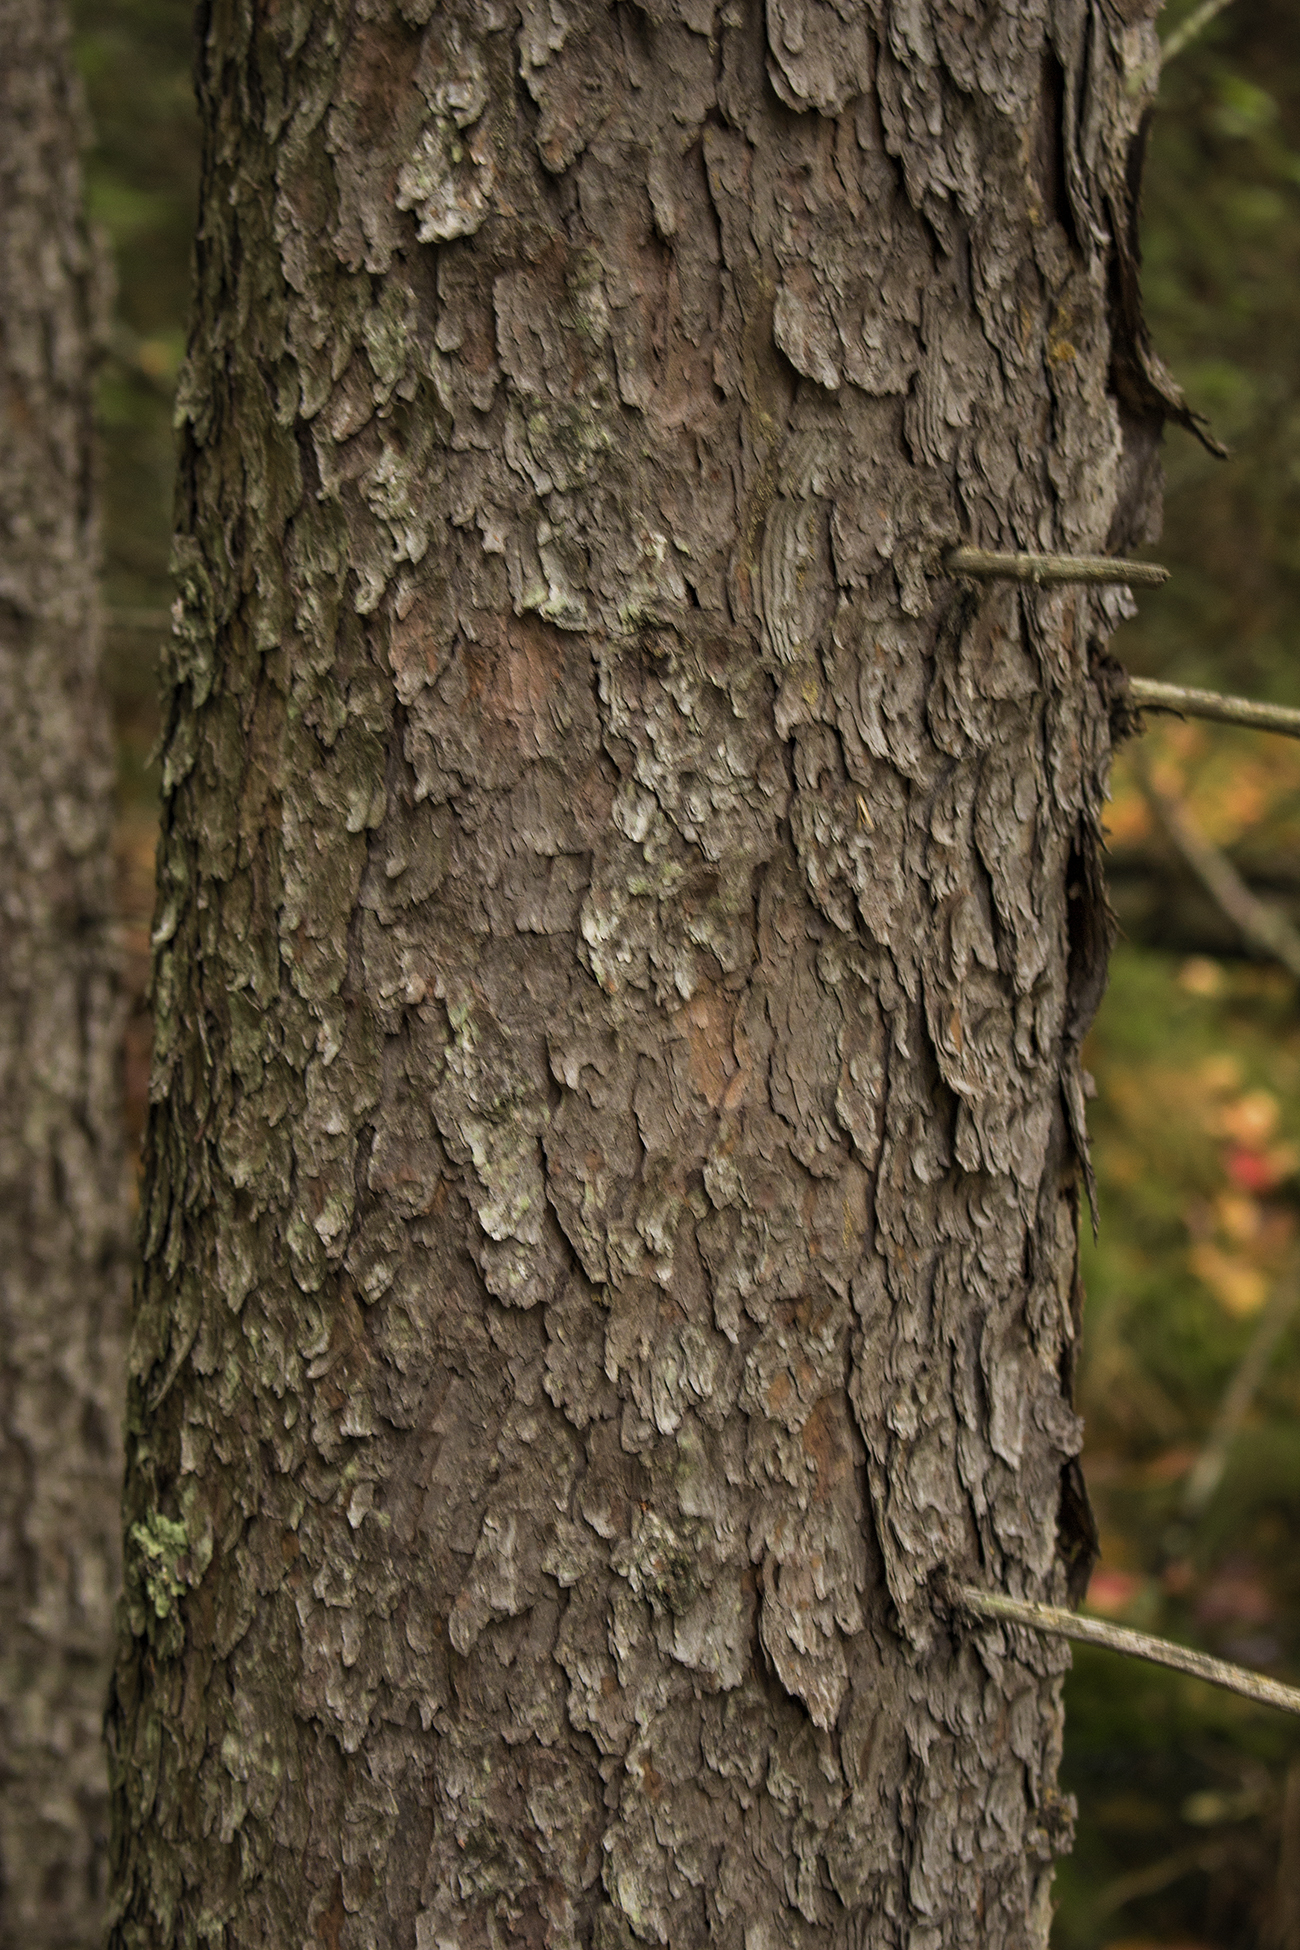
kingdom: Plantae
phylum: Tracheophyta
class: Pinopsida
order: Pinales
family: Pinaceae
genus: Picea
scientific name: Picea mariana
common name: Black spruce
